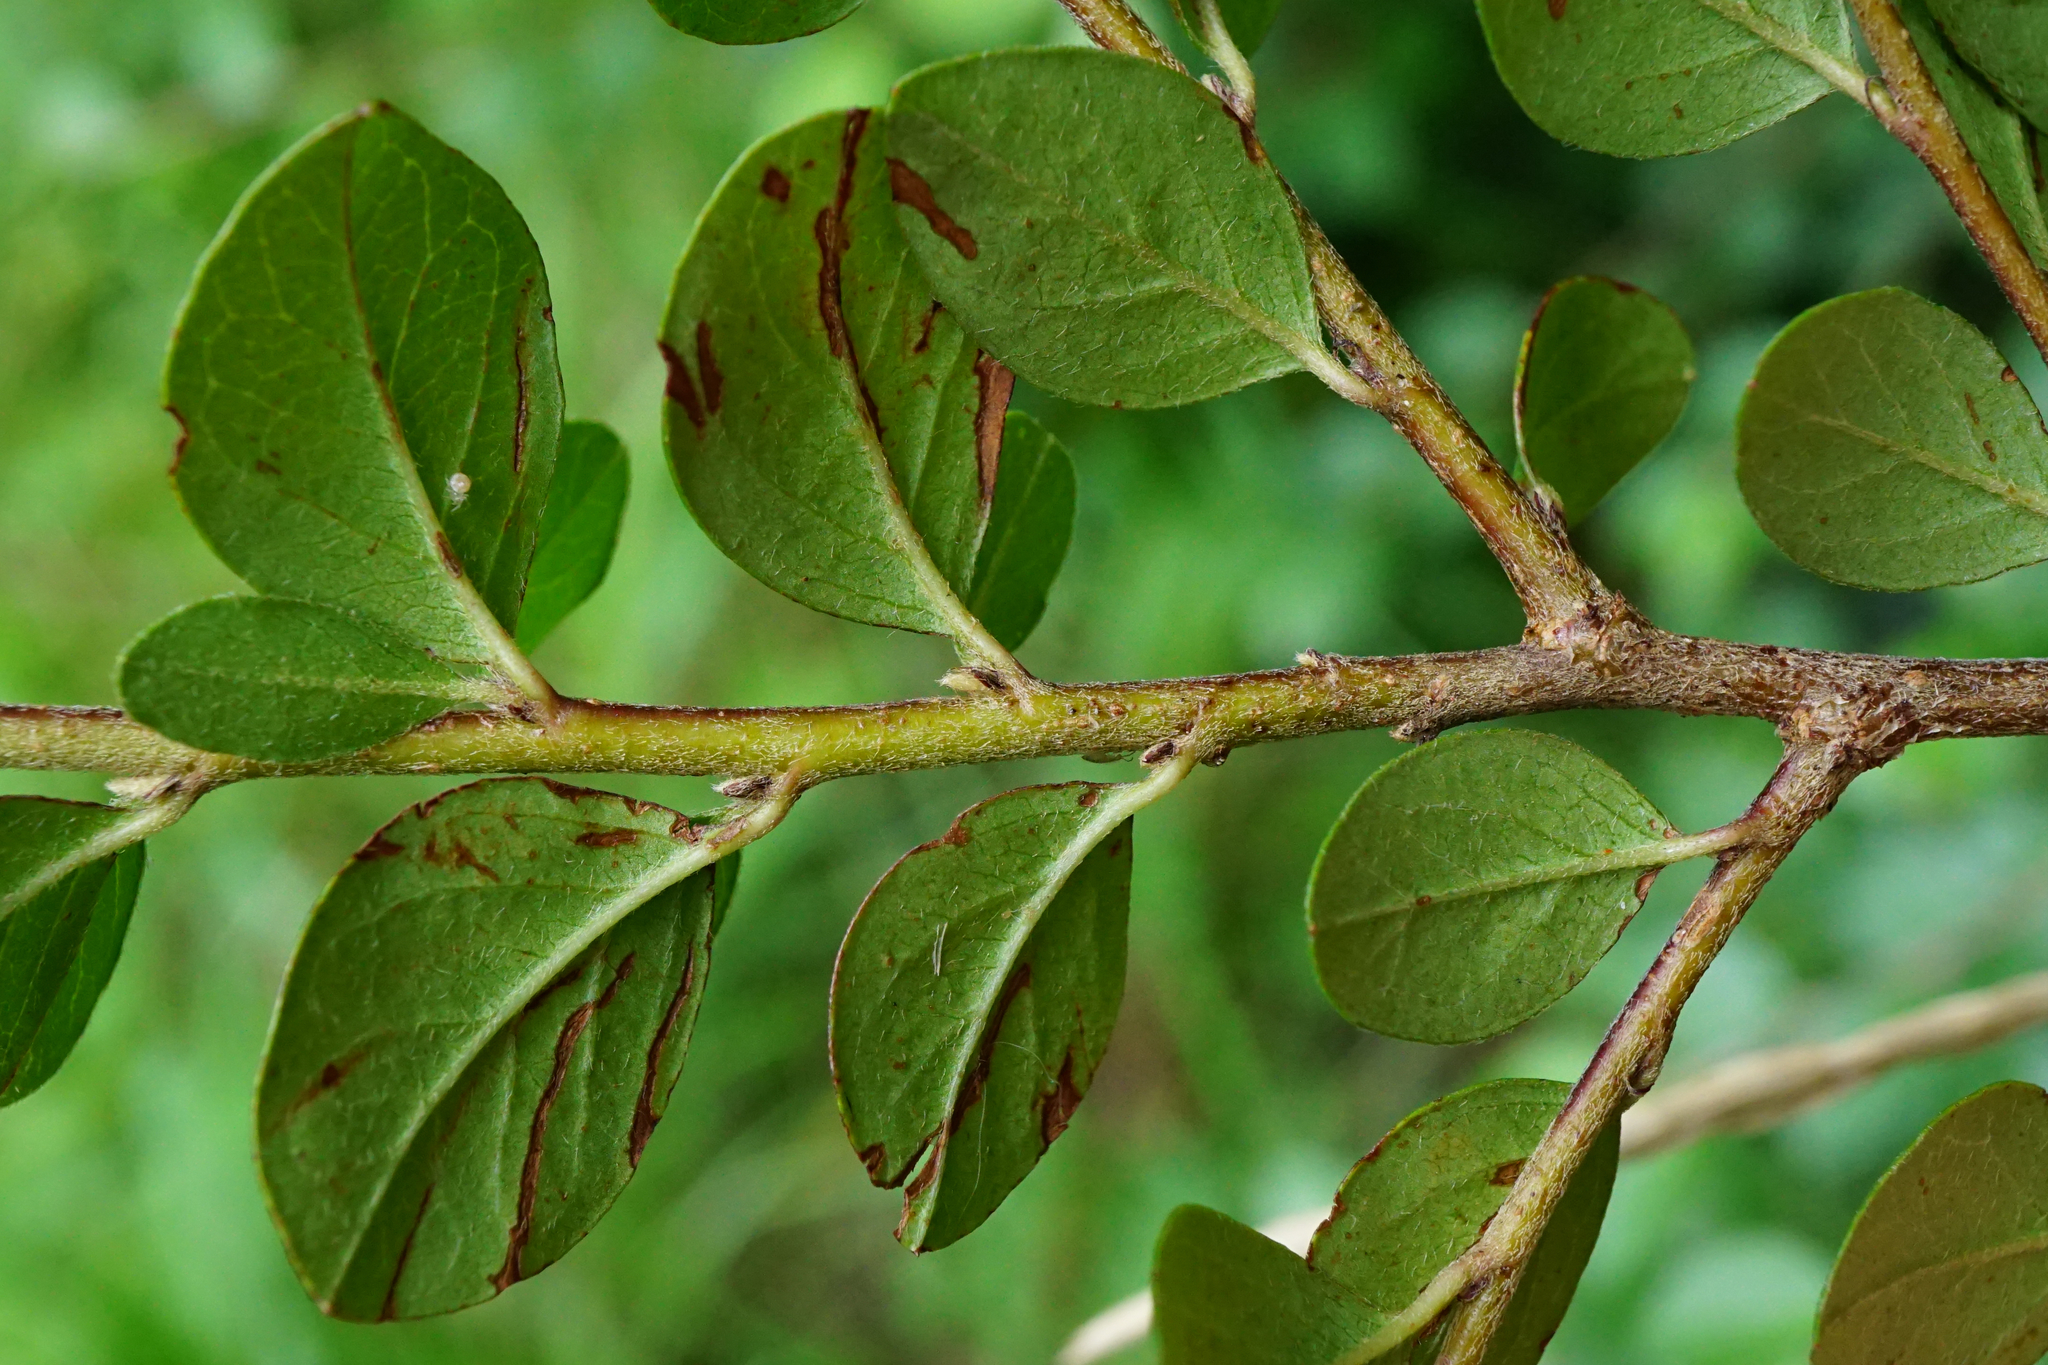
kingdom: Plantae
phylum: Tracheophyta
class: Magnoliopsida
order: Rosales
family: Rosaceae
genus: Cotoneaster
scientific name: Cotoneaster divaricatus
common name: Spreading cotoneaster
